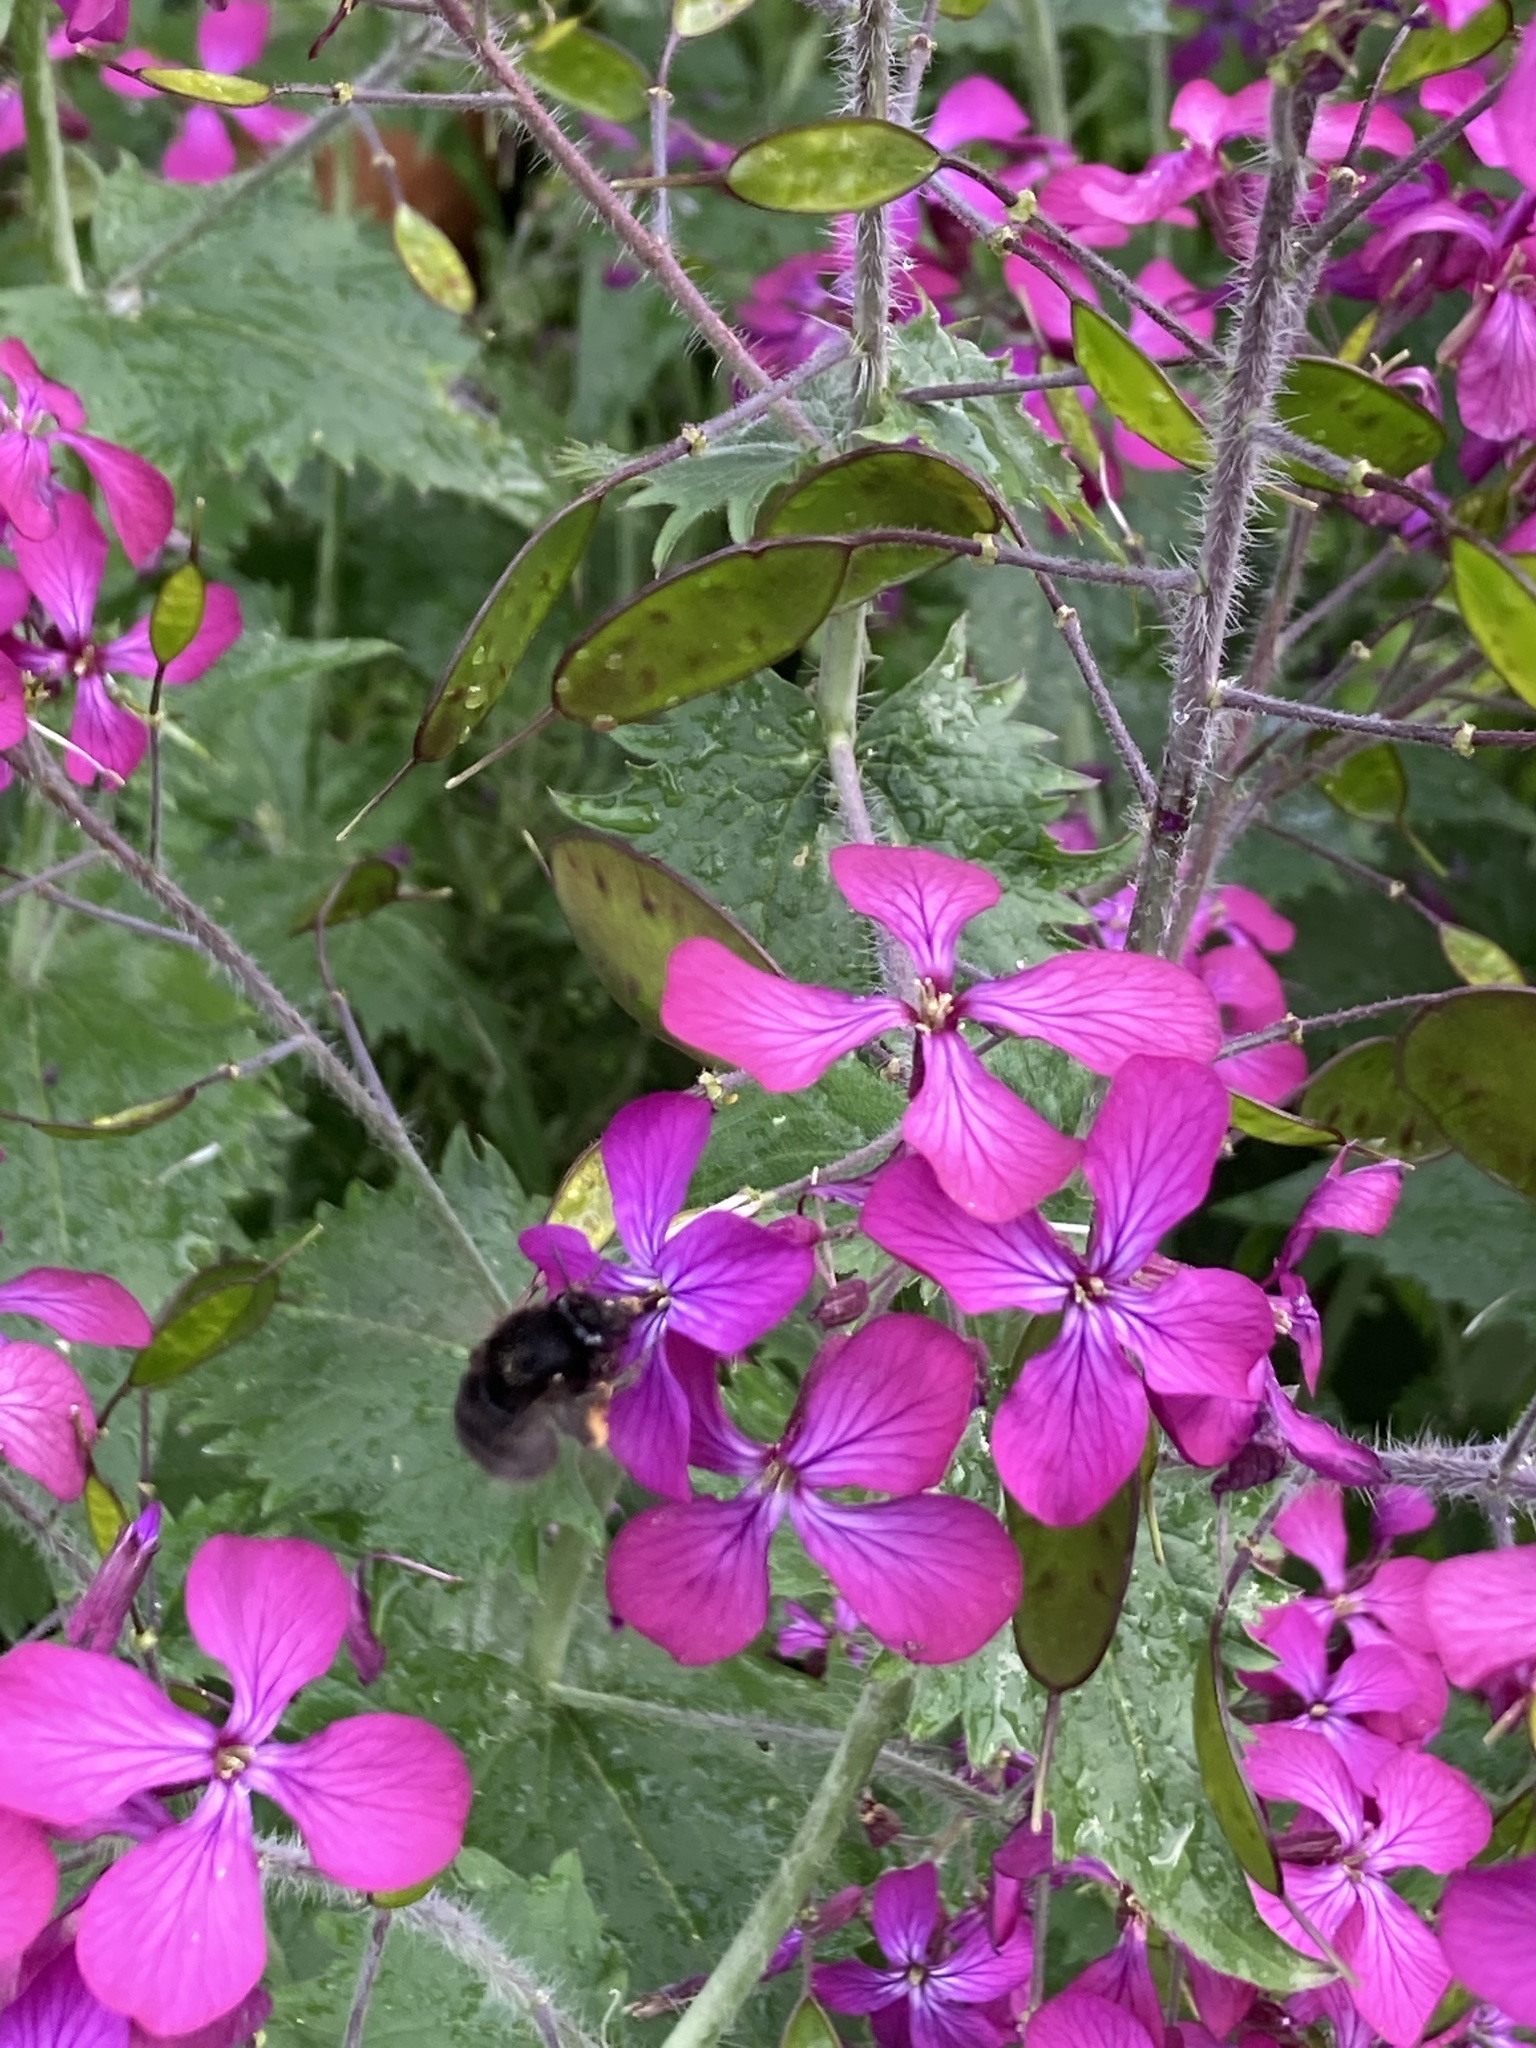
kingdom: Plantae
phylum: Tracheophyta
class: Magnoliopsida
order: Brassicales
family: Brassicaceae
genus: Lunaria
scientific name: Lunaria annua
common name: Honesty
